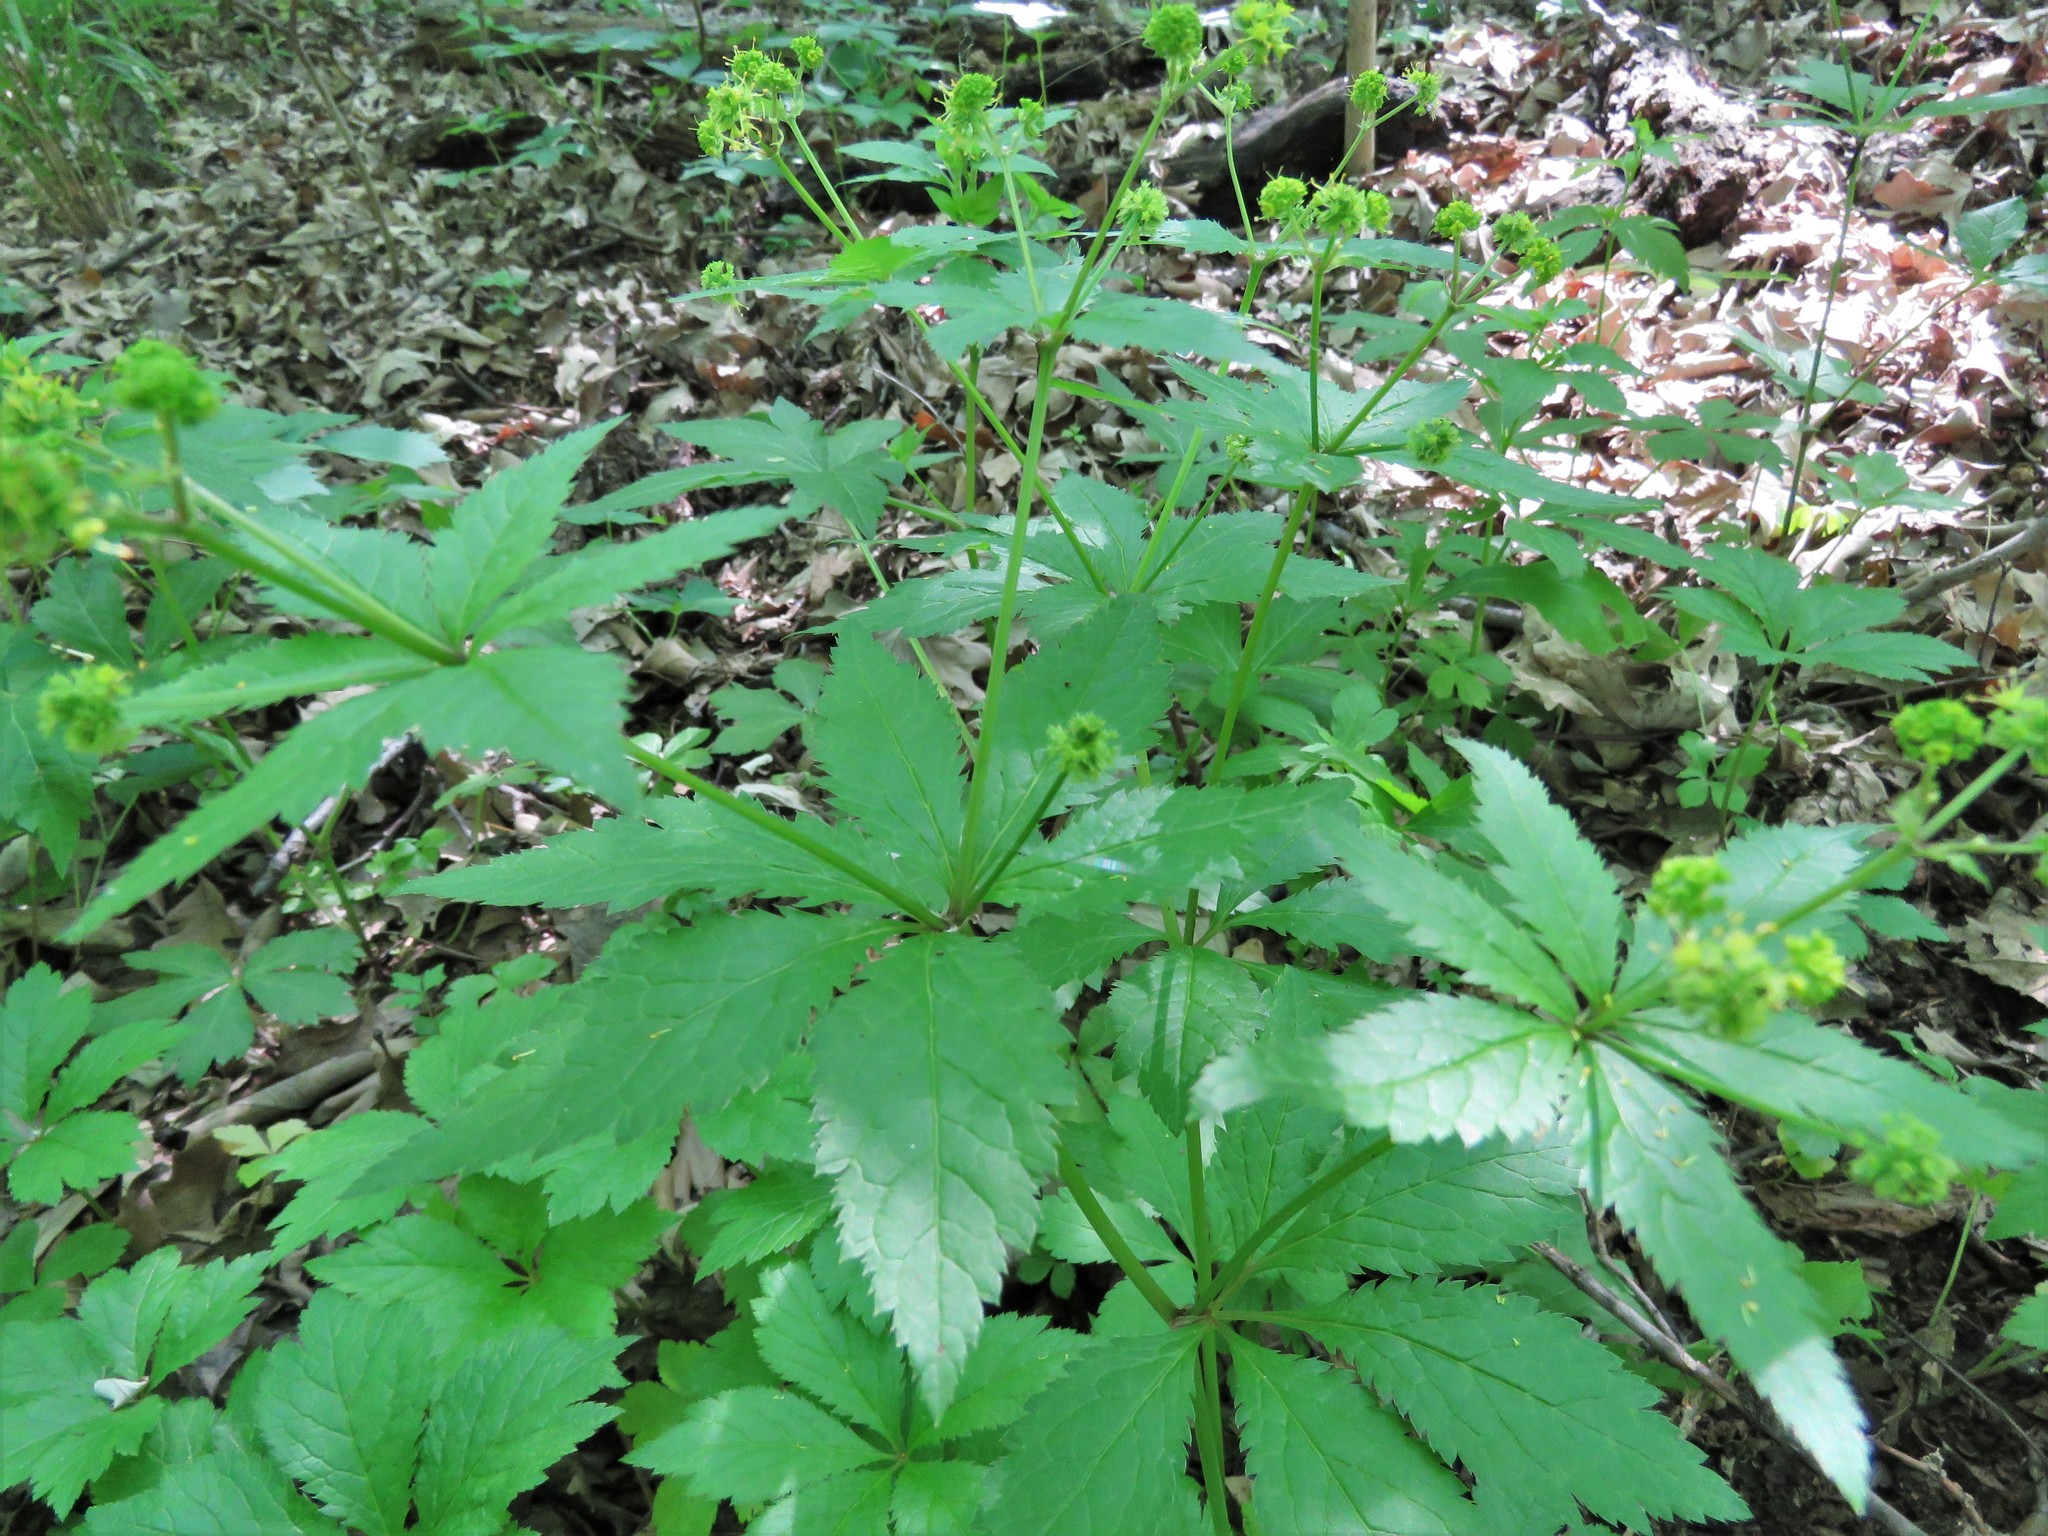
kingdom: Plantae
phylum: Tracheophyta
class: Magnoliopsida
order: Apiales
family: Apiaceae
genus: Sanicula
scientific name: Sanicula odorata
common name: Cluster sanicle
